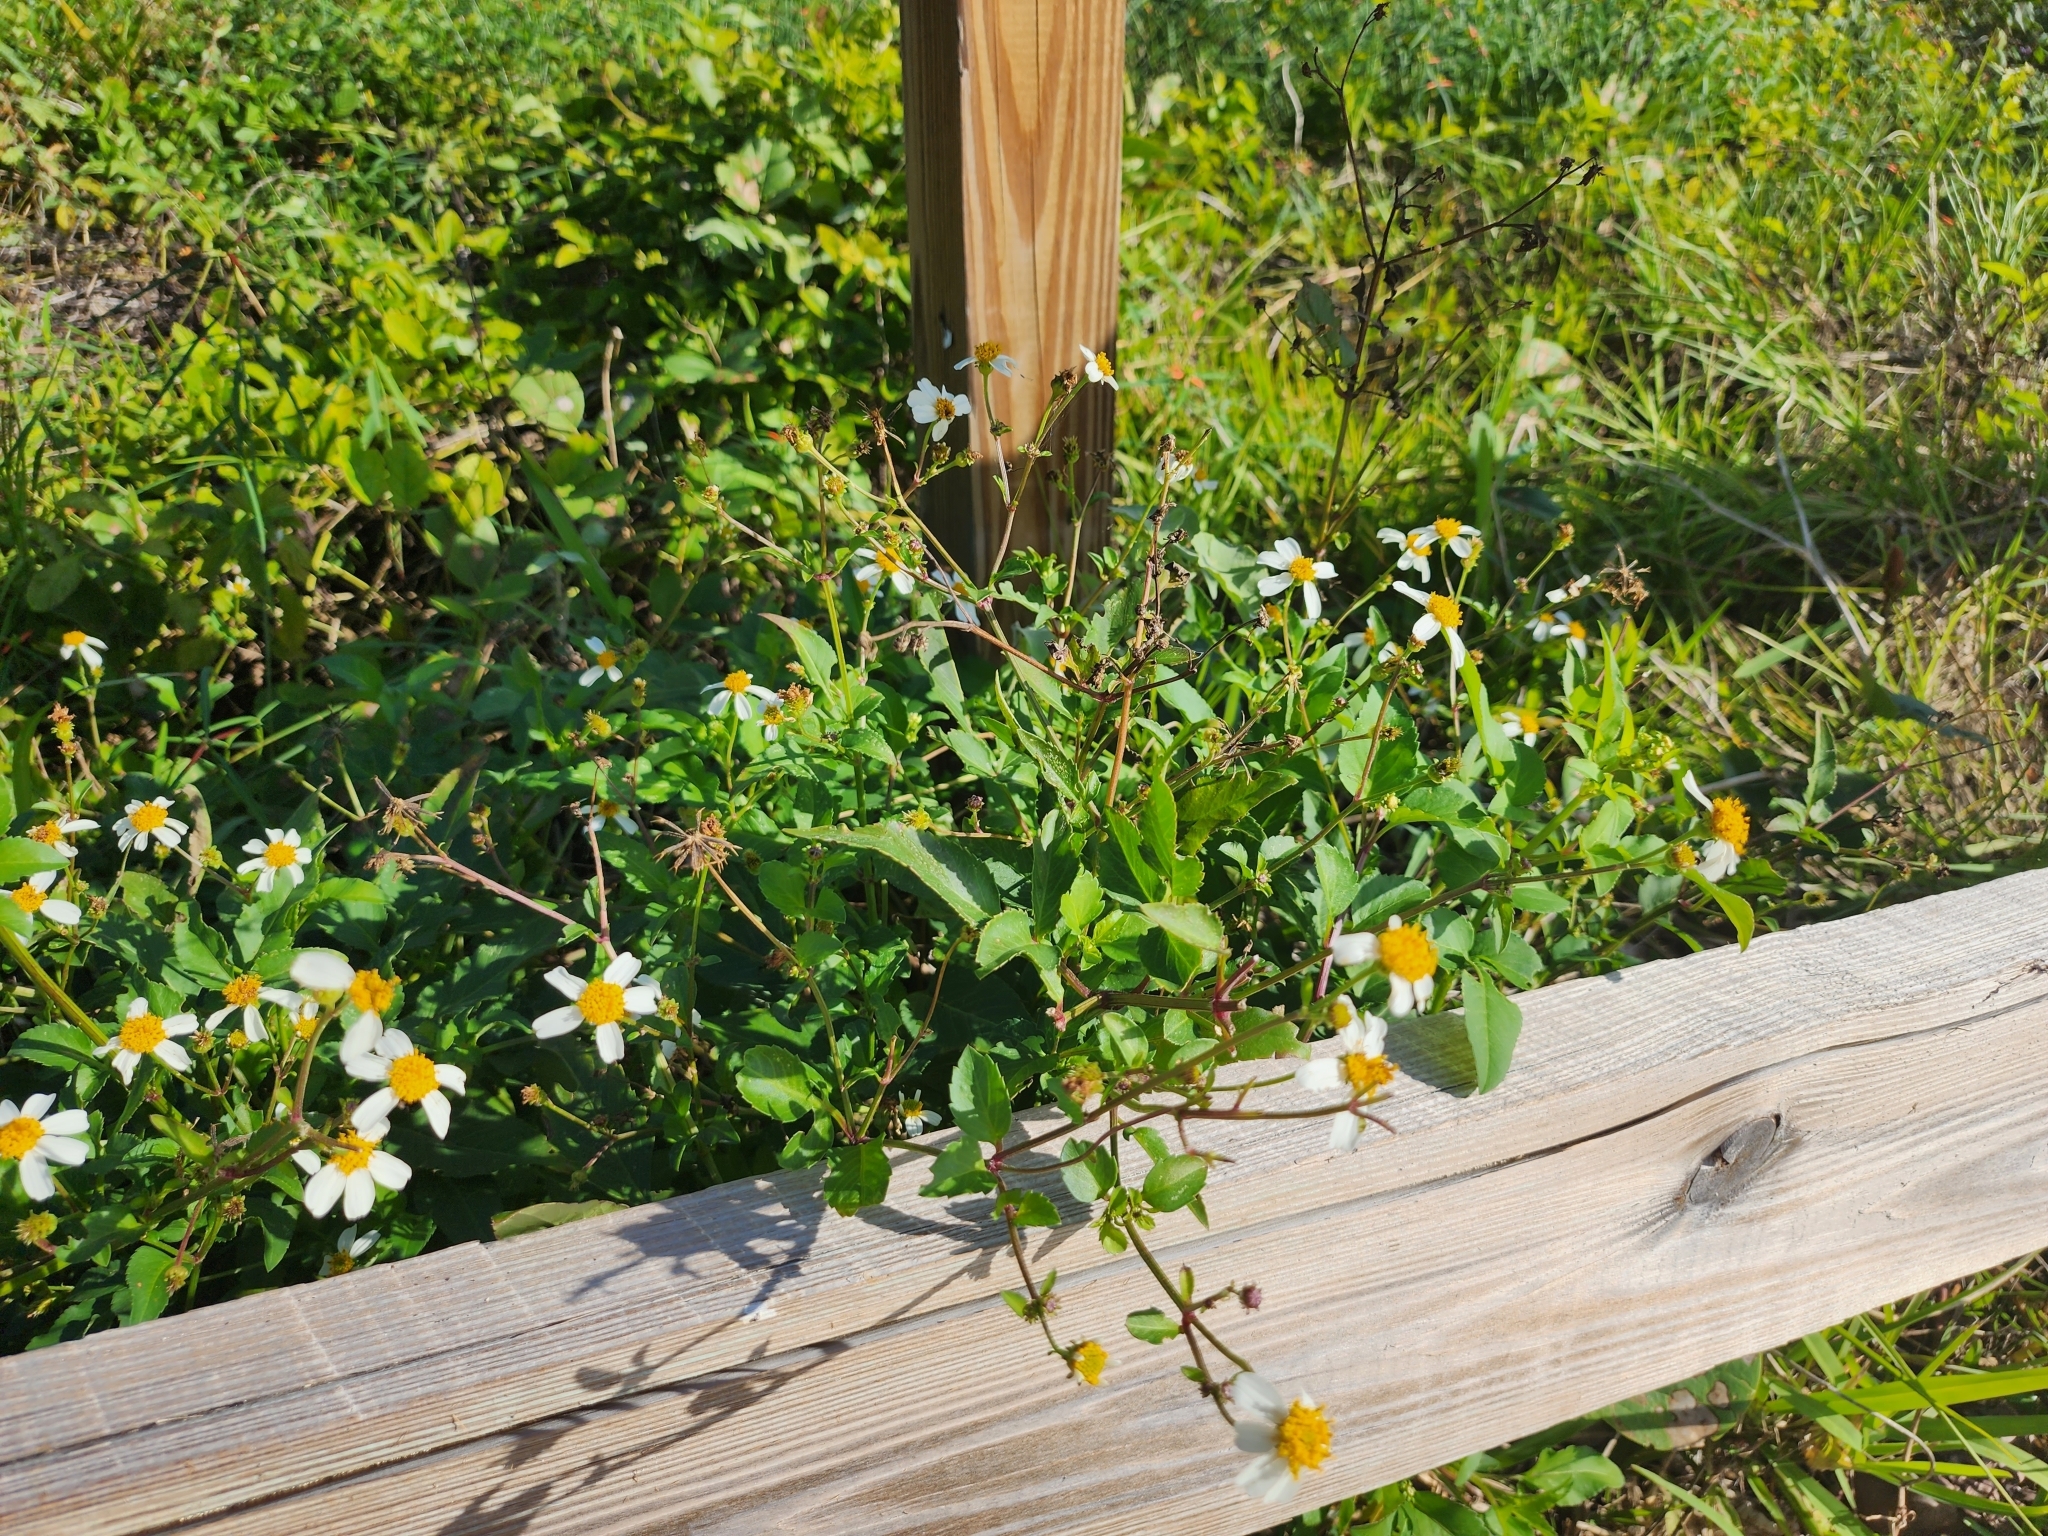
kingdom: Plantae
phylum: Tracheophyta
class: Magnoliopsida
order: Asterales
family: Asteraceae
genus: Bidens
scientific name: Bidens alba
